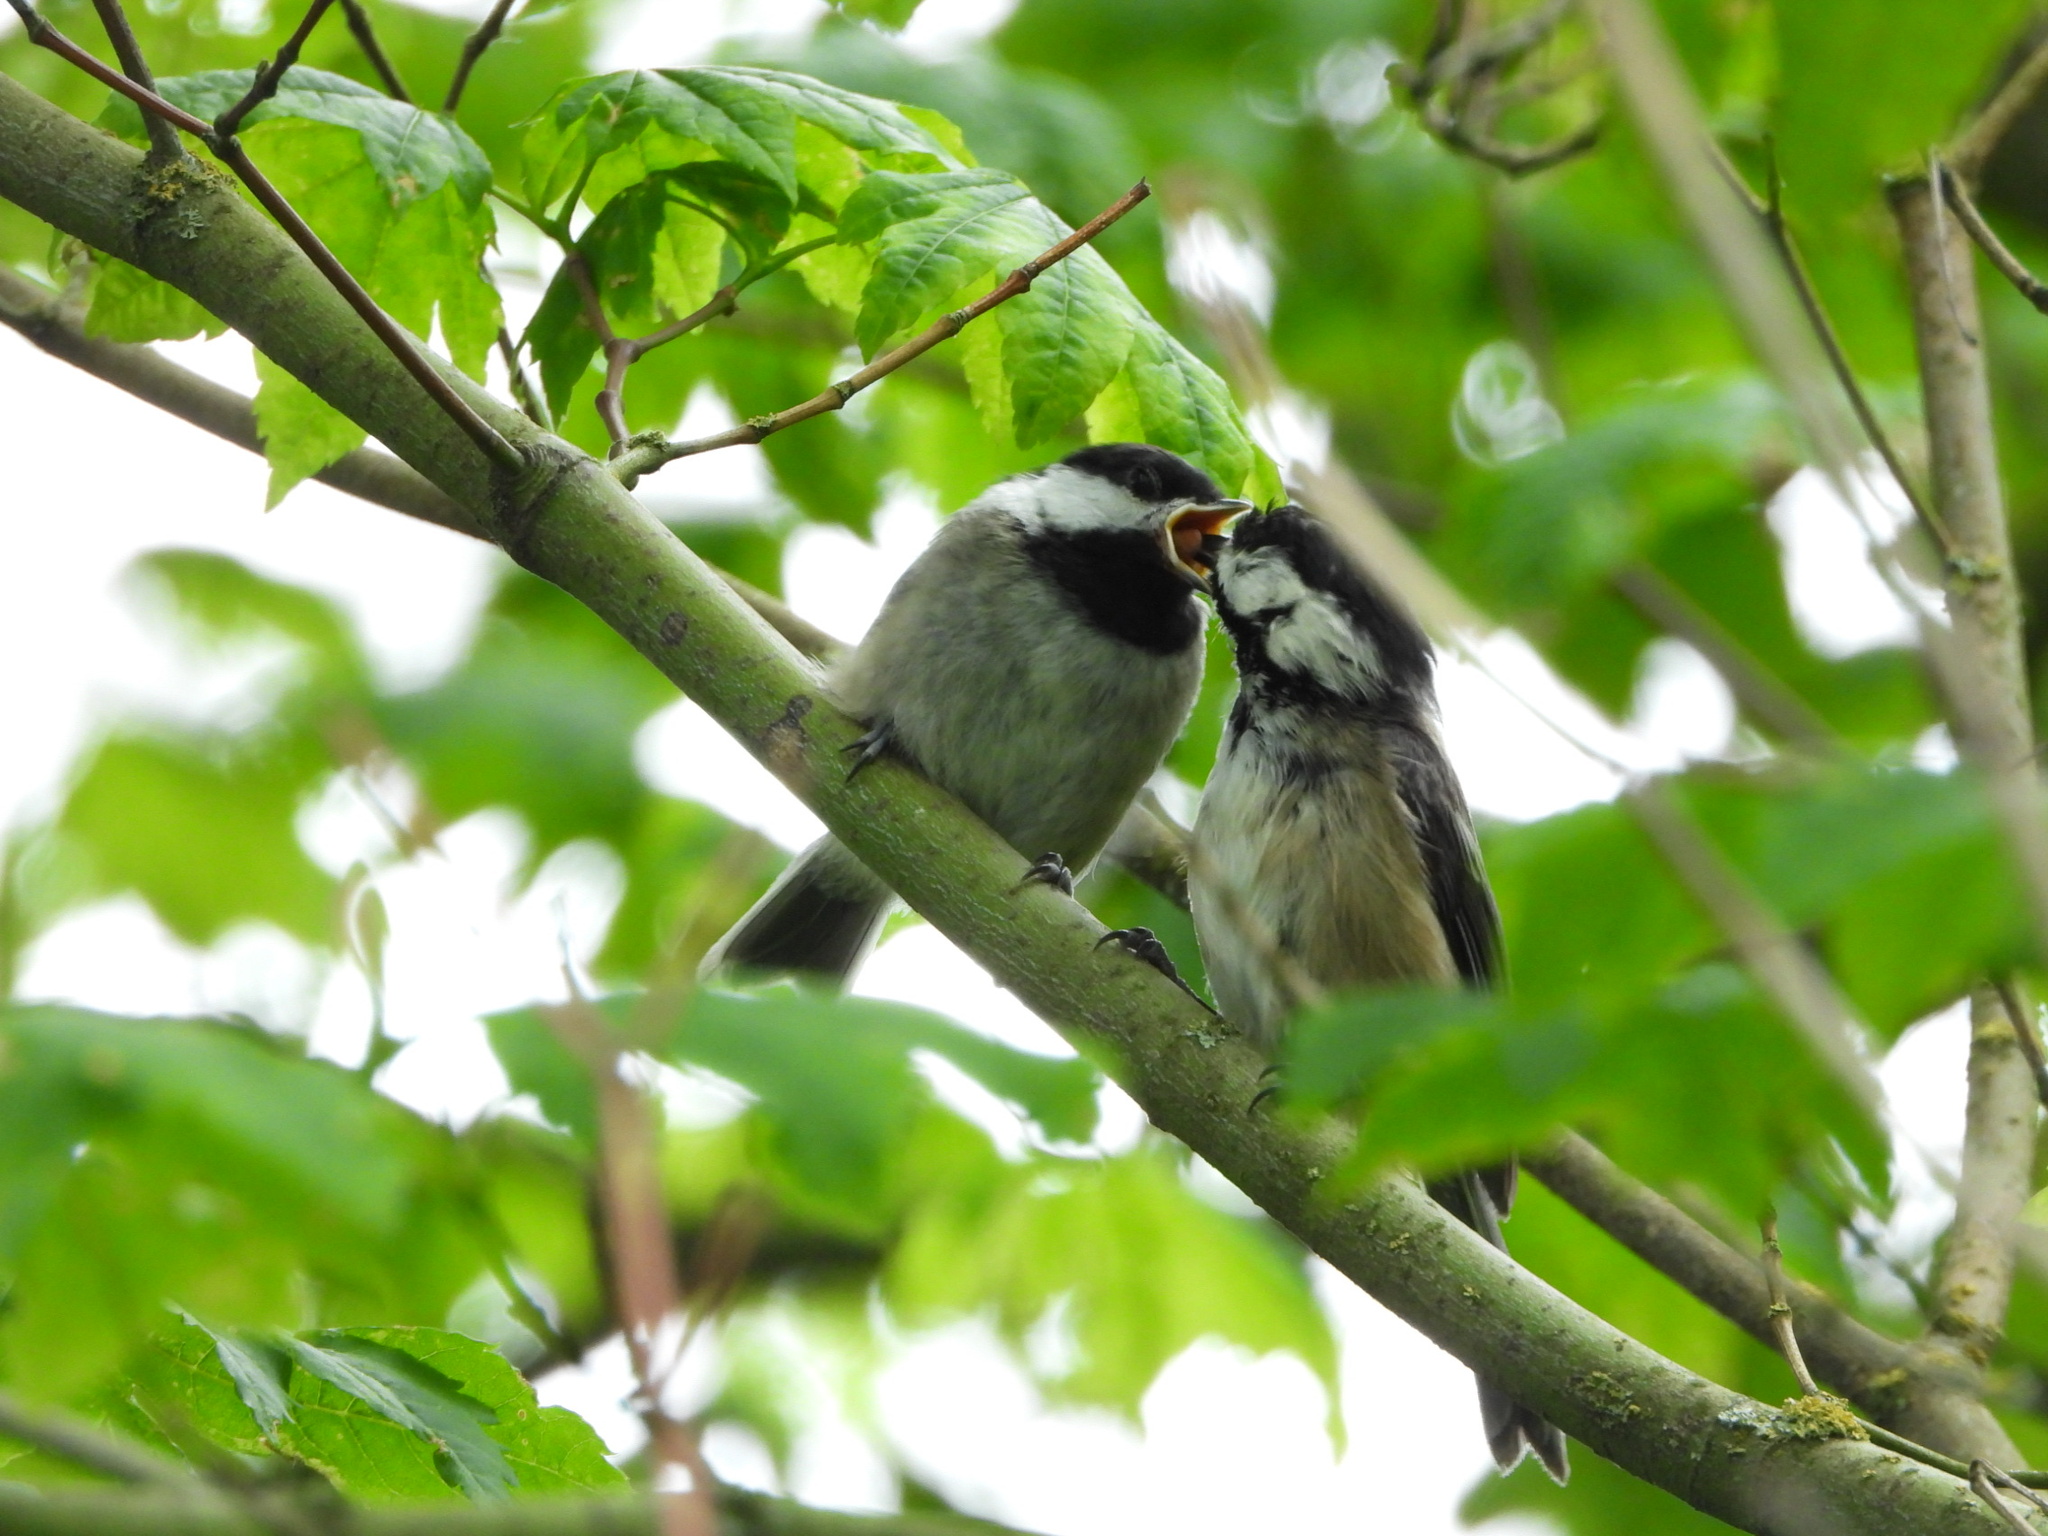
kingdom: Animalia
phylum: Chordata
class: Aves
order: Passeriformes
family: Paridae
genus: Poecile
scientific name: Poecile atricapillus
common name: Black-capped chickadee
